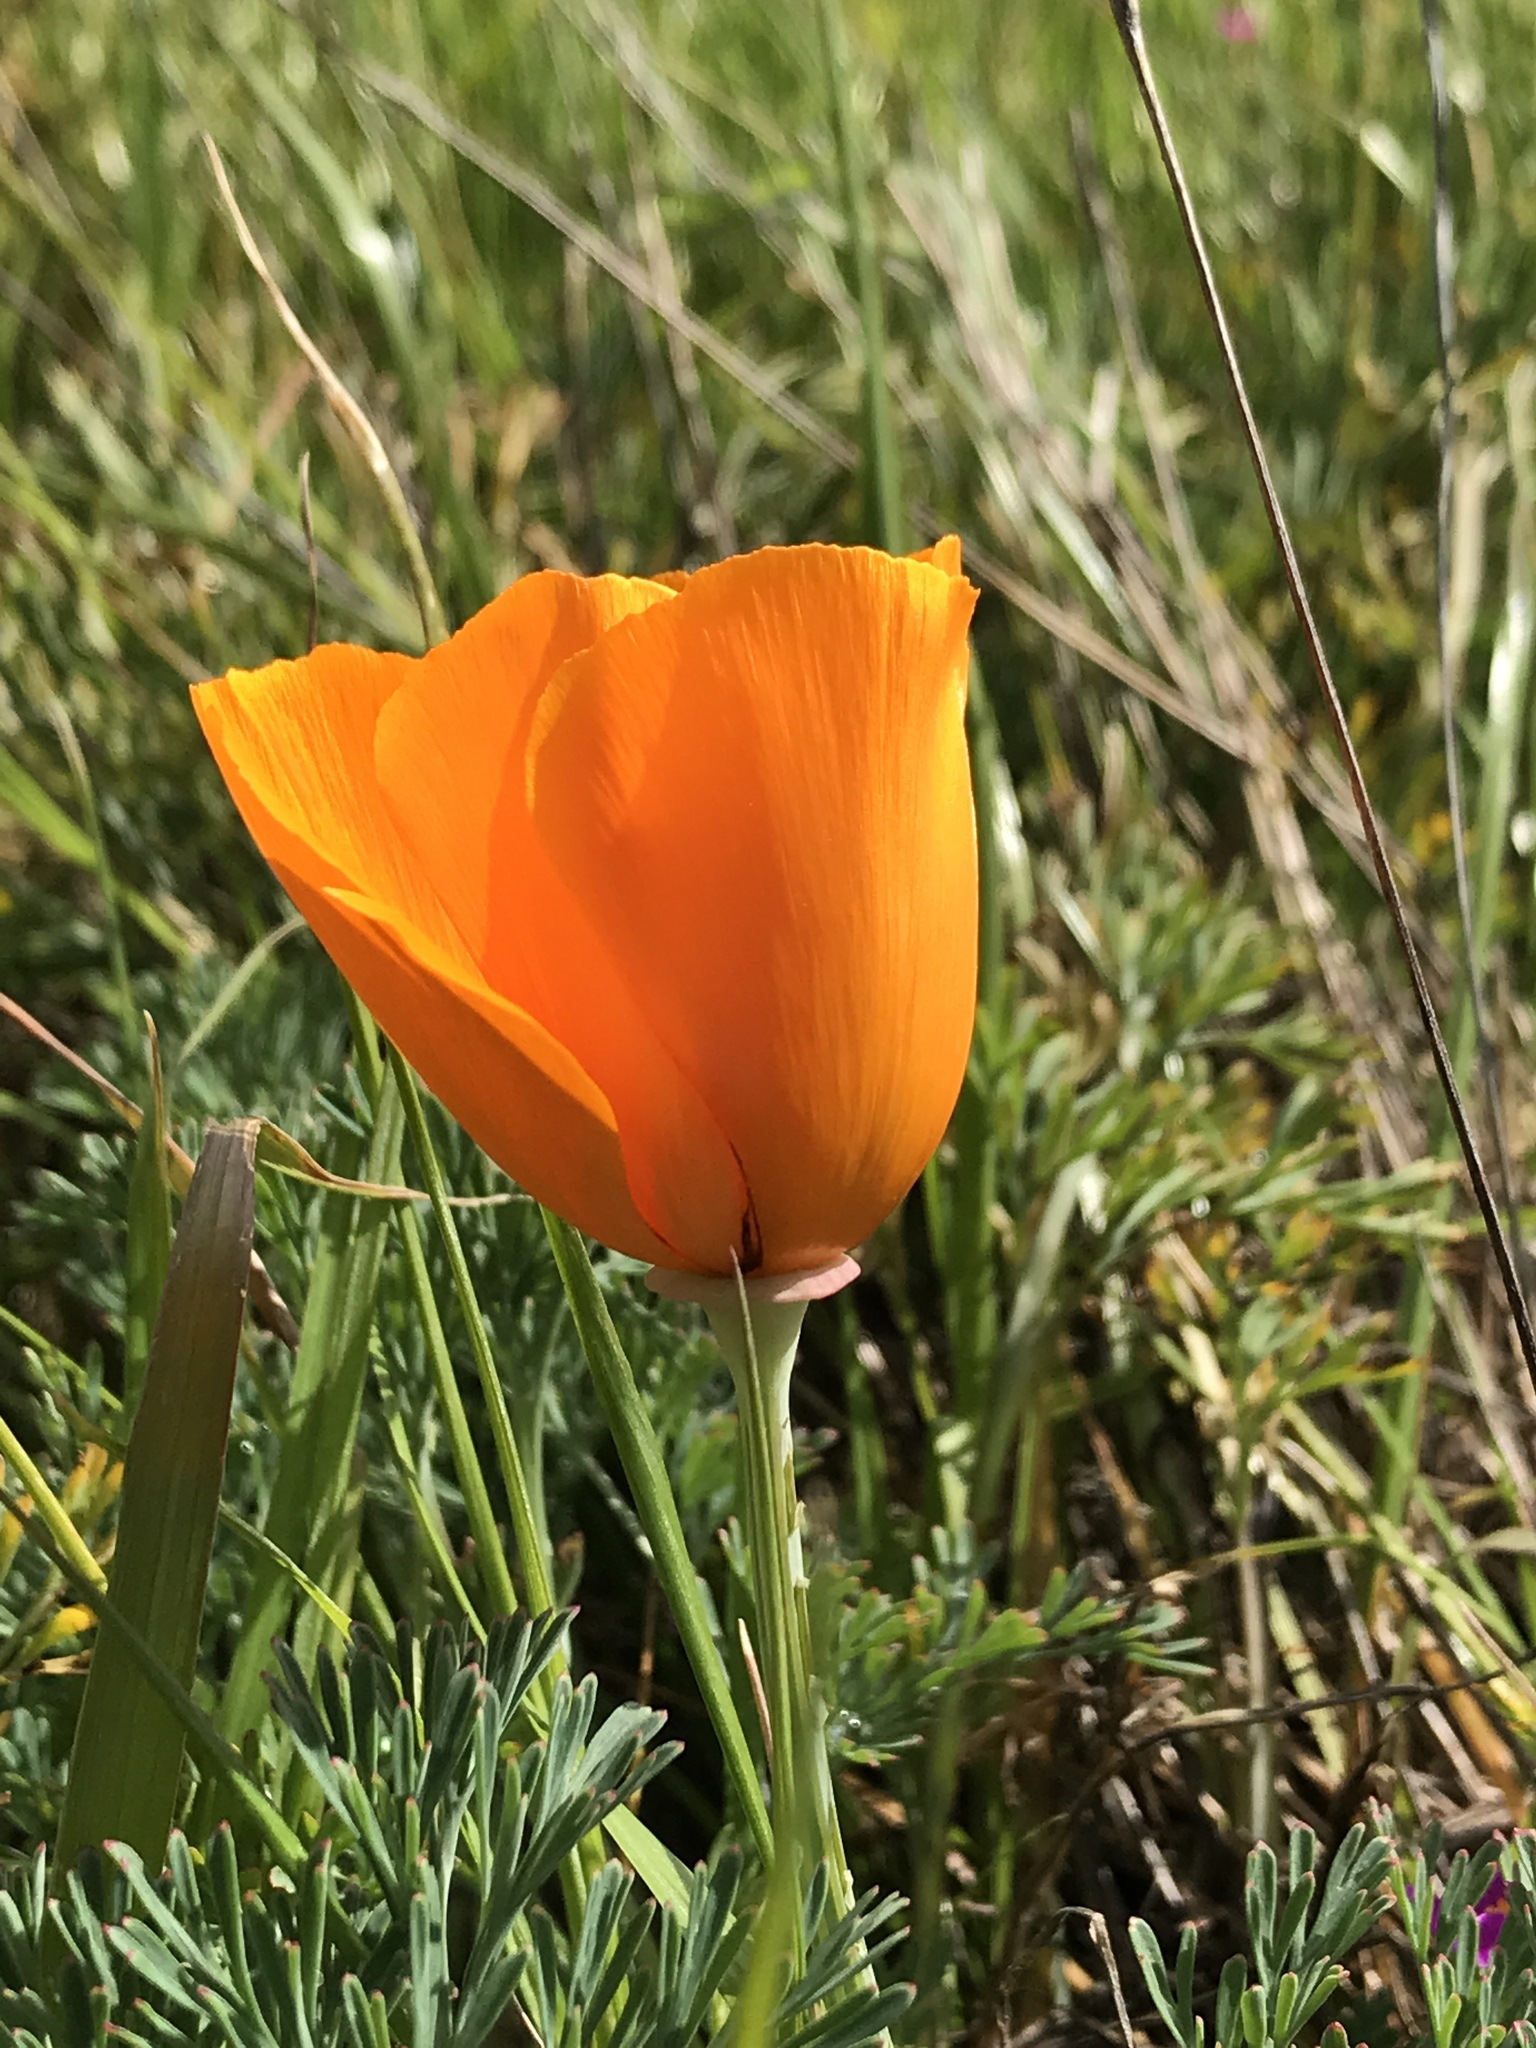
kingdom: Plantae
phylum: Tracheophyta
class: Magnoliopsida
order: Ranunculales
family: Papaveraceae
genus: Eschscholzia
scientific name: Eschscholzia californica
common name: California poppy
